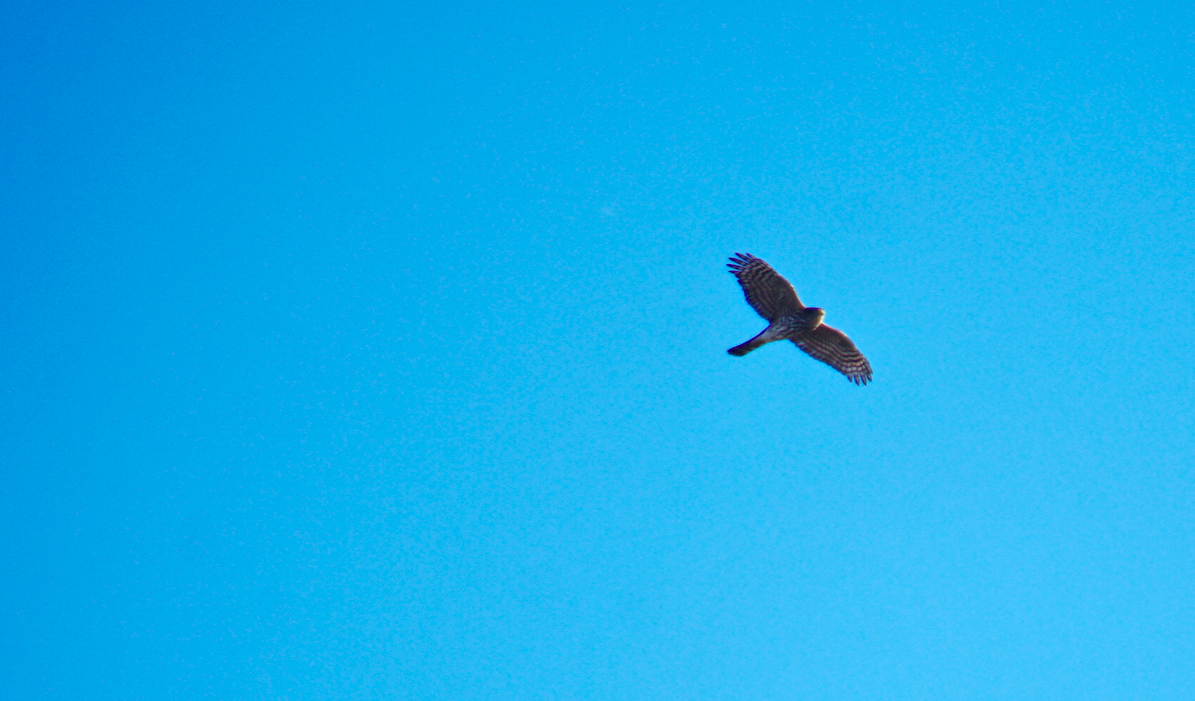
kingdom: Animalia
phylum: Chordata
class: Aves
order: Accipitriformes
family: Accipitridae
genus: Accipiter
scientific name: Accipiter striatus
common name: Sharp-shinned hawk
